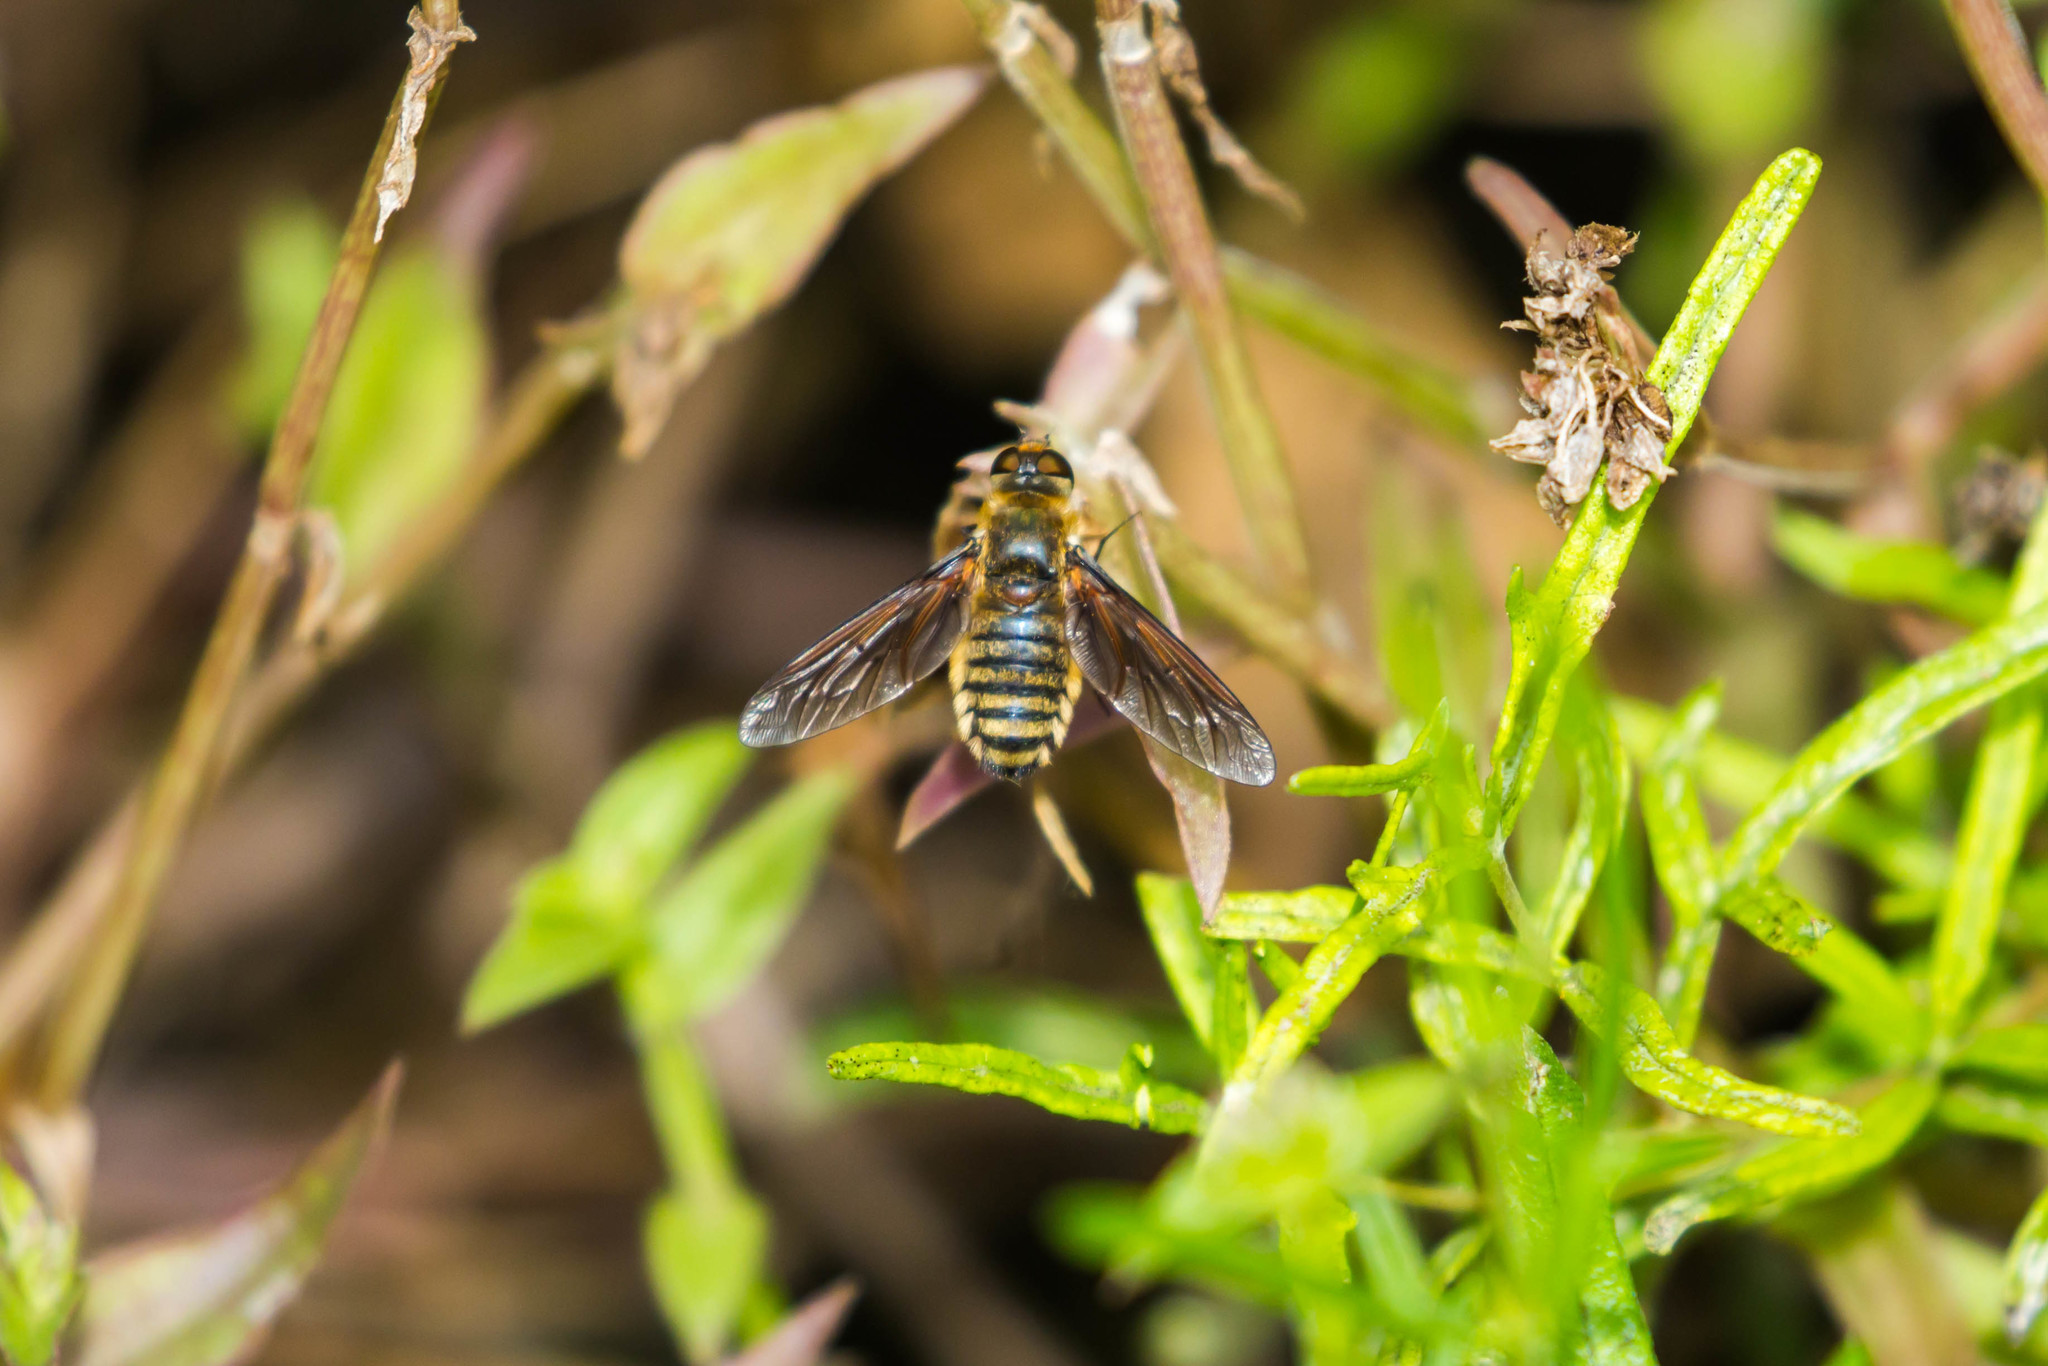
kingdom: Animalia
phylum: Arthropoda
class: Insecta
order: Diptera
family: Bombyliidae
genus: Poecilanthrax
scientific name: Poecilanthrax lucifer
